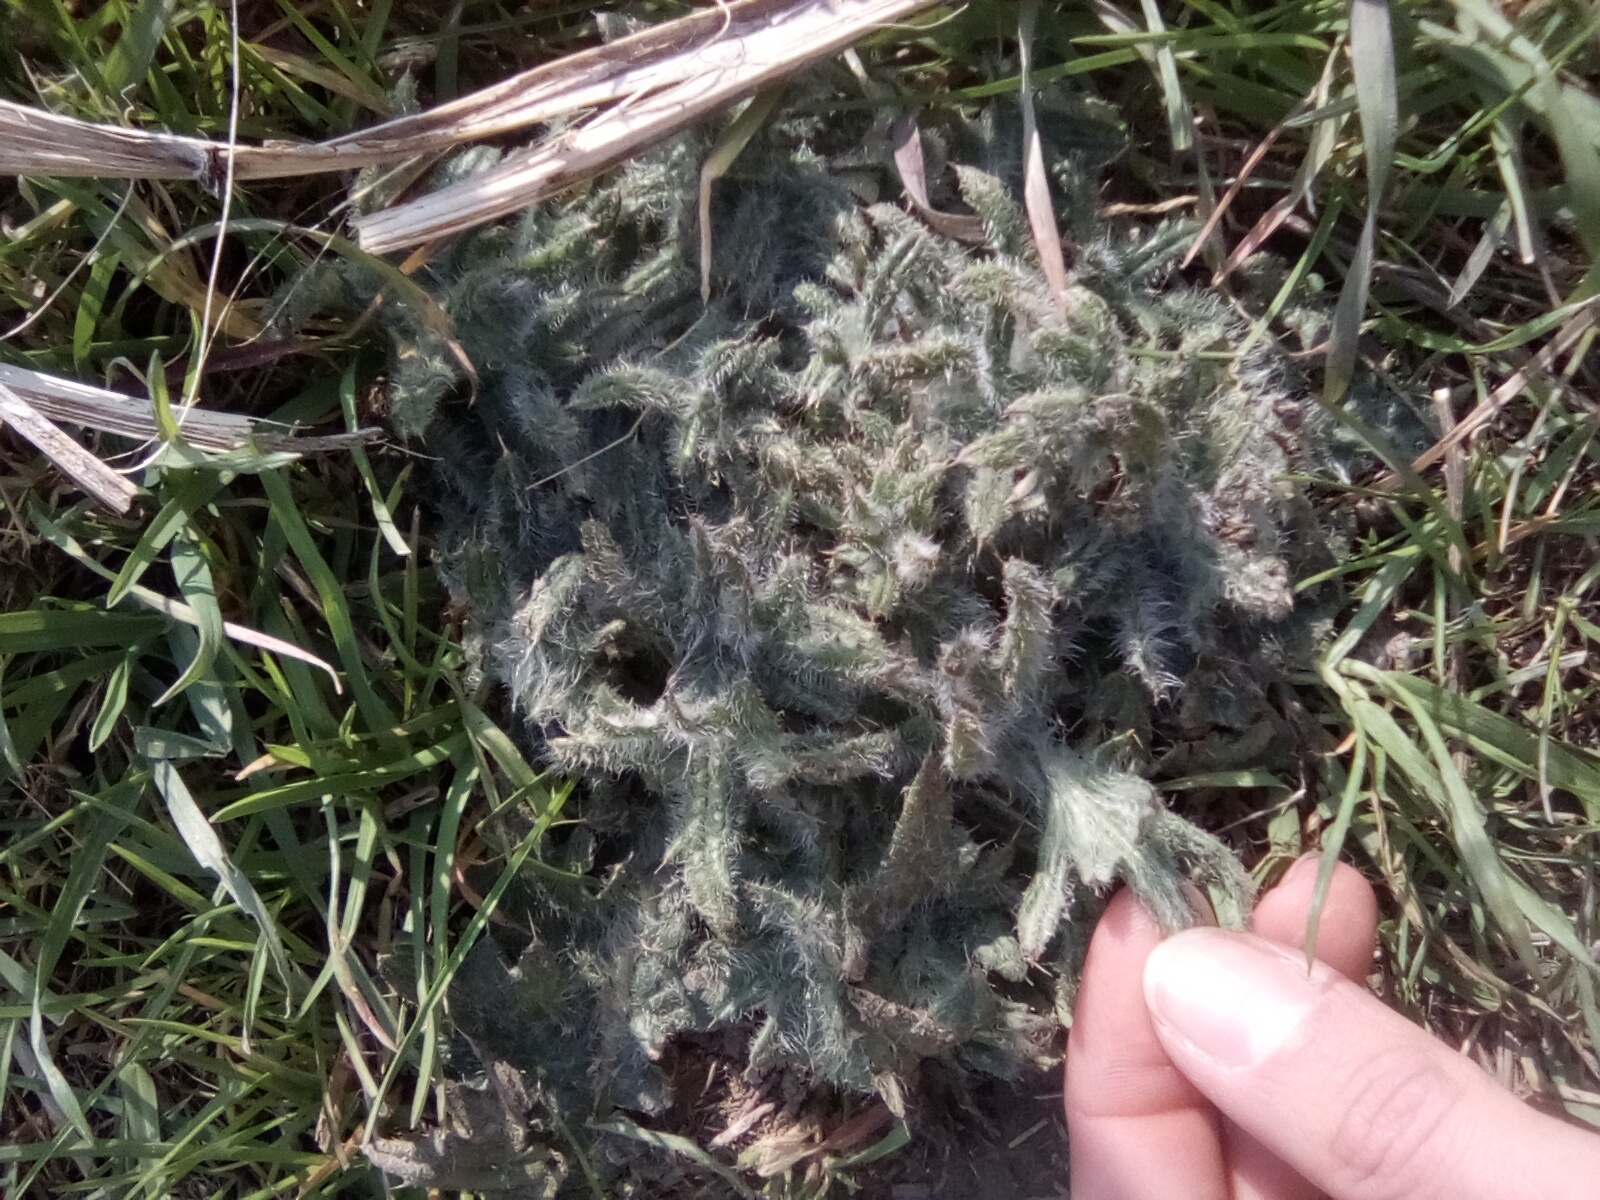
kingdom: Plantae
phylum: Tracheophyta
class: Magnoliopsida
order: Asterales
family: Asteraceae
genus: Cirsium
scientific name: Cirsium vulgare
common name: Bull thistle
